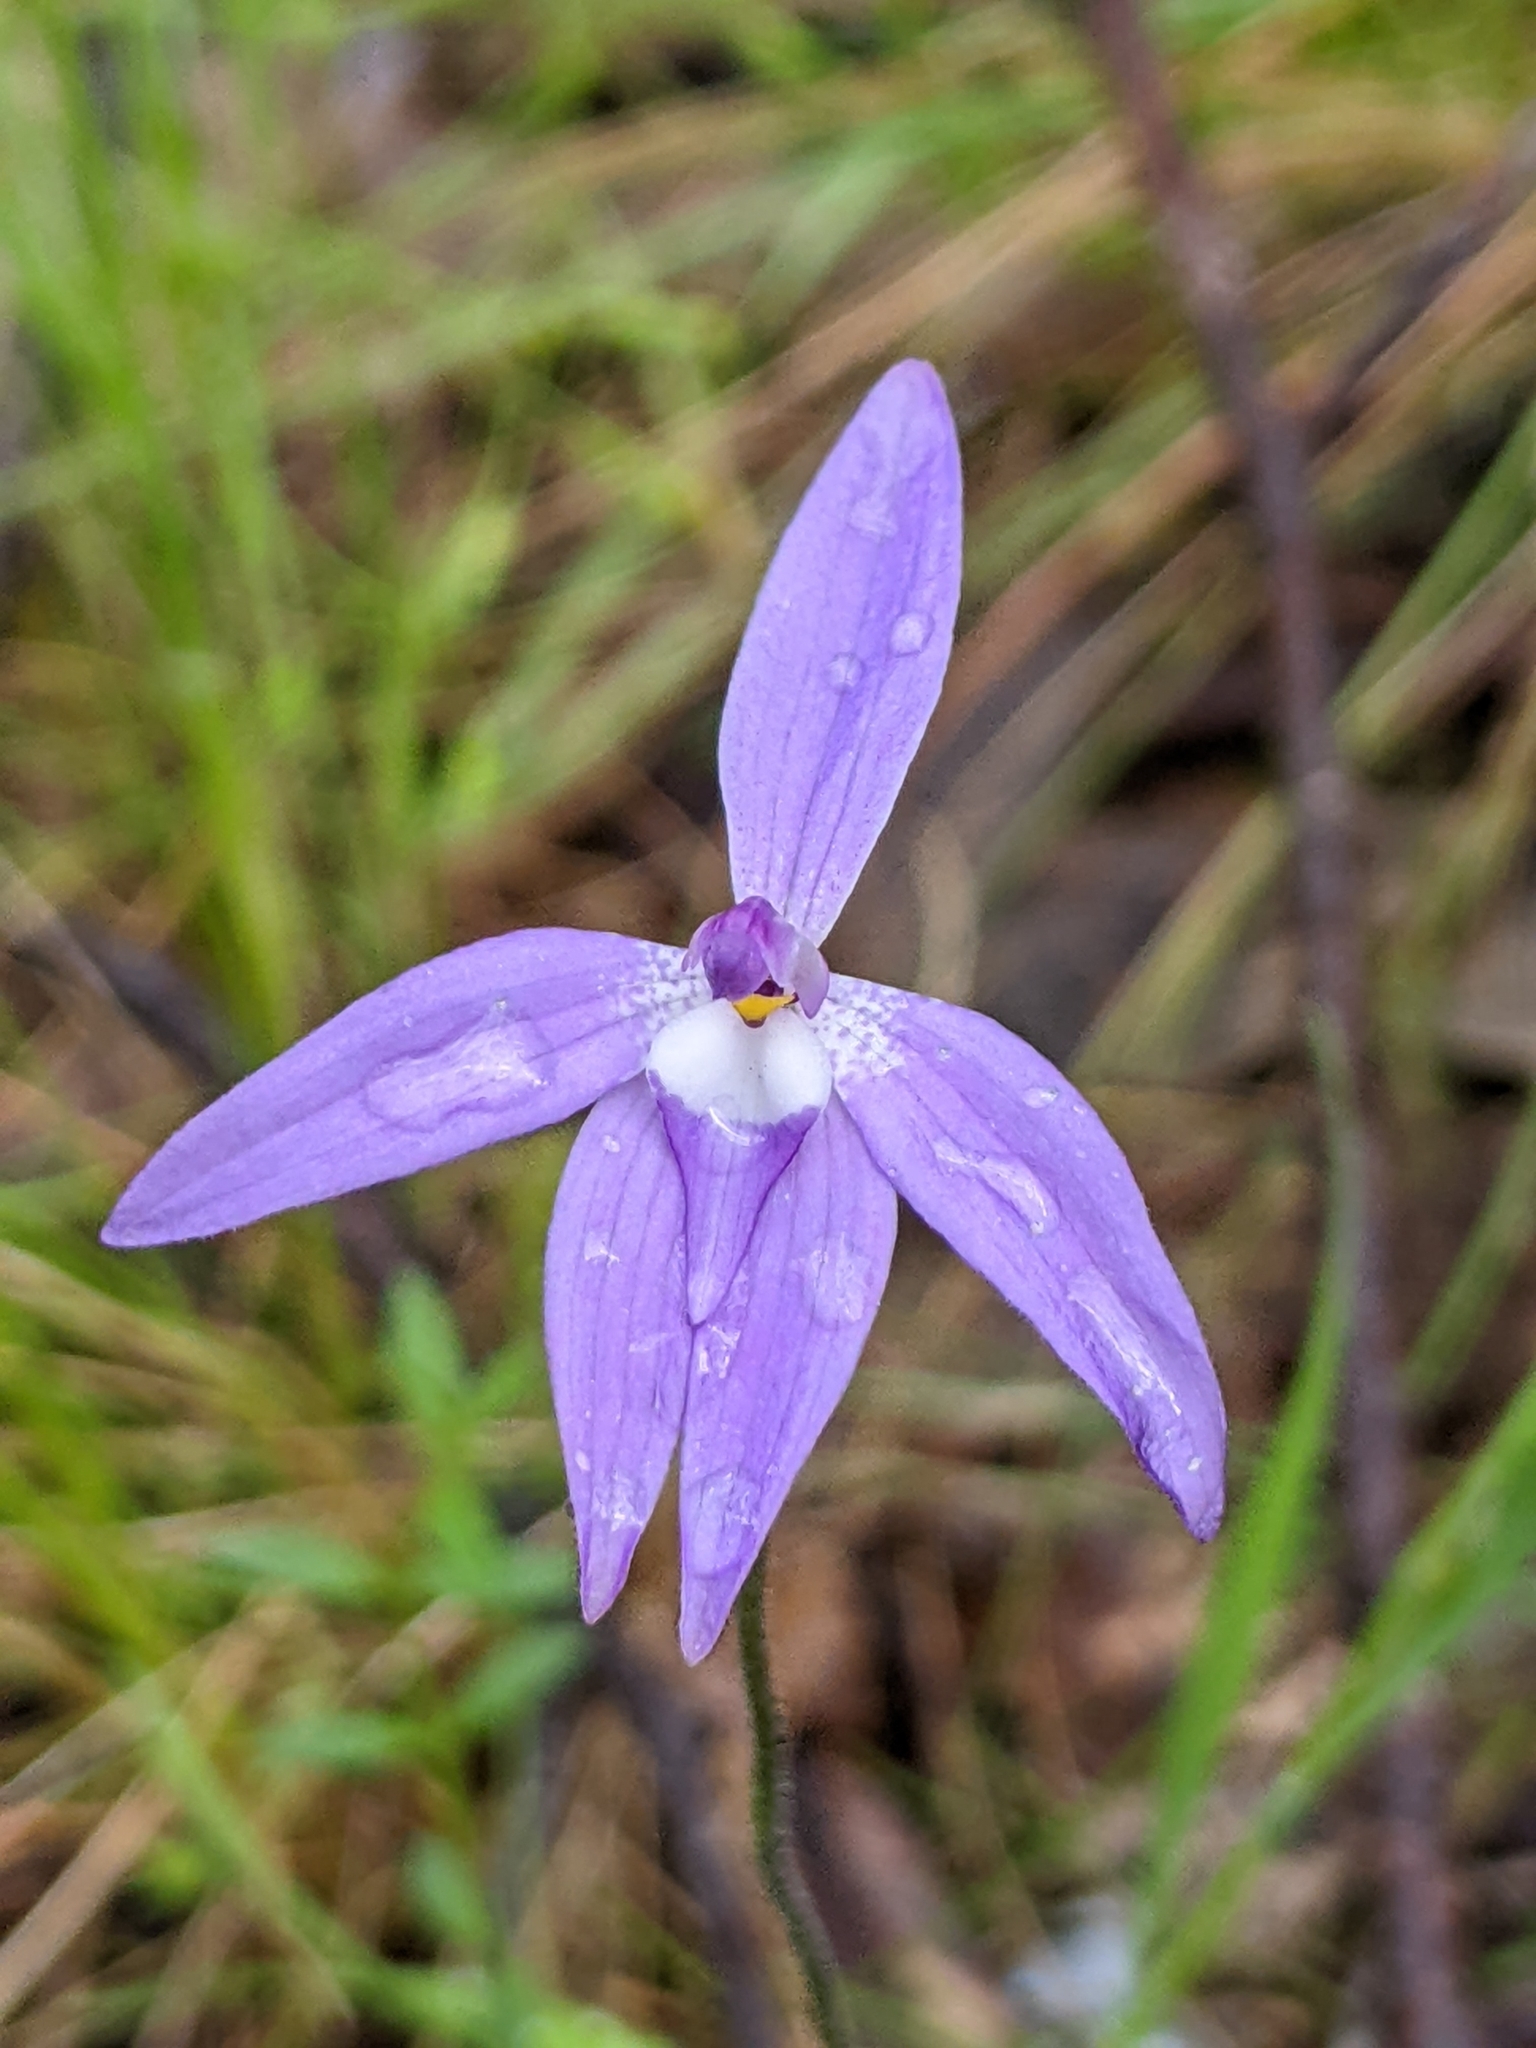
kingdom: Plantae
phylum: Tracheophyta
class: Liliopsida
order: Asparagales
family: Orchidaceae
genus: Caladenia
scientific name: Caladenia major
